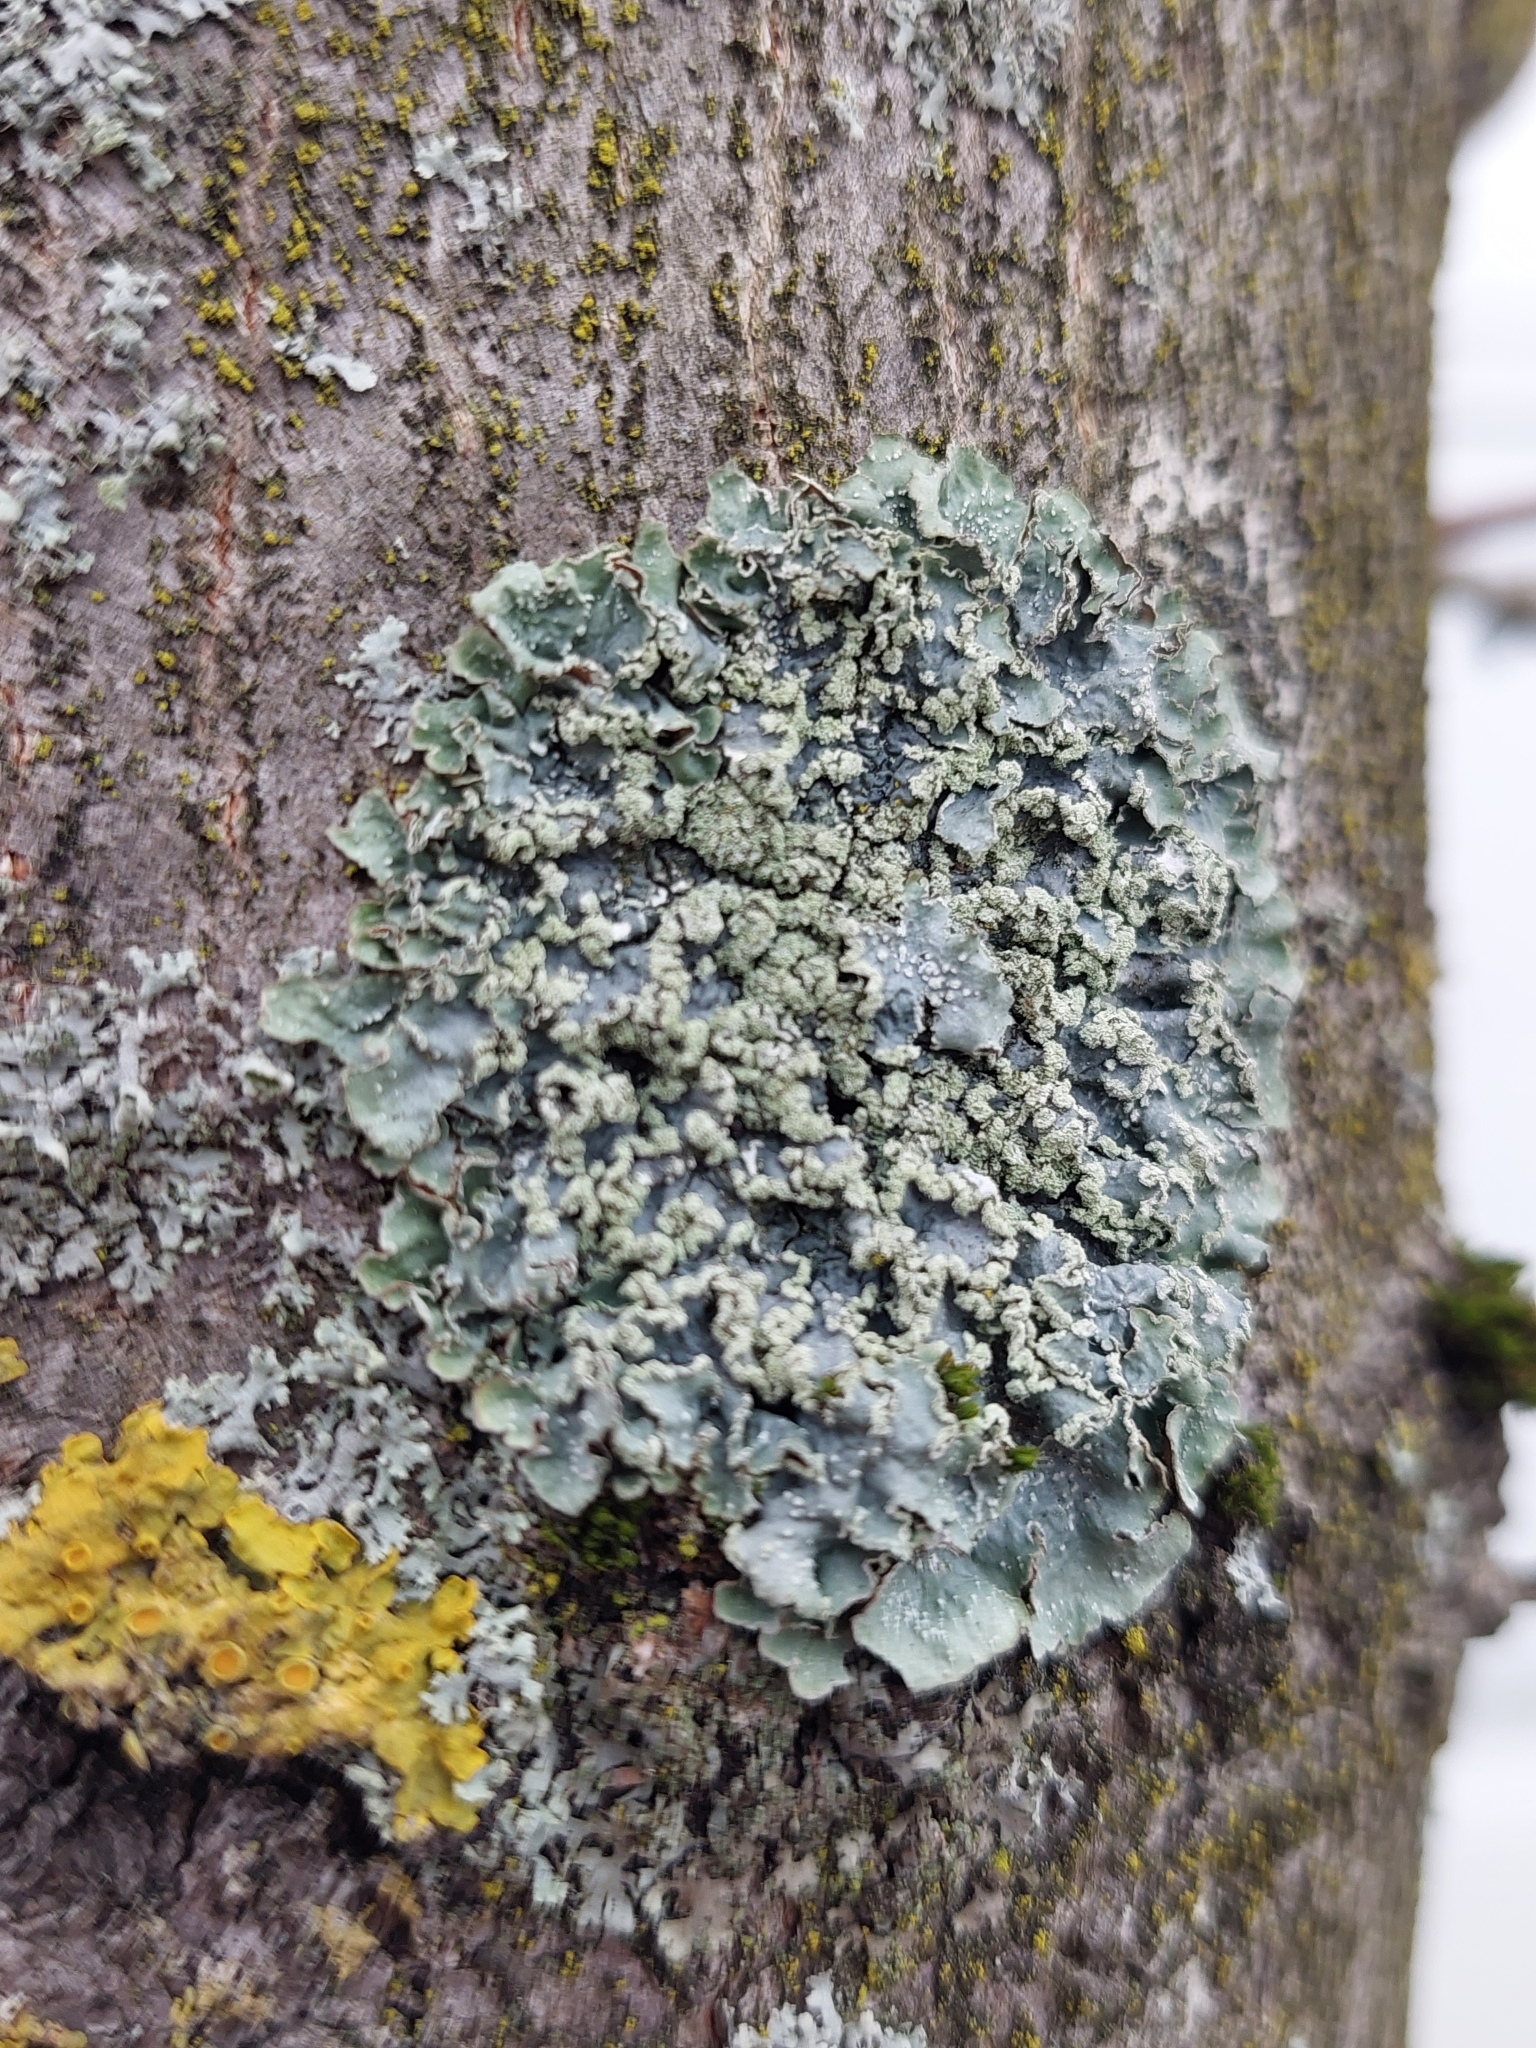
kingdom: Fungi
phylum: Ascomycota
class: Lecanoromycetes
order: Lecanorales
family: Parmeliaceae
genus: Punctelia
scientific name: Punctelia jeckeri
